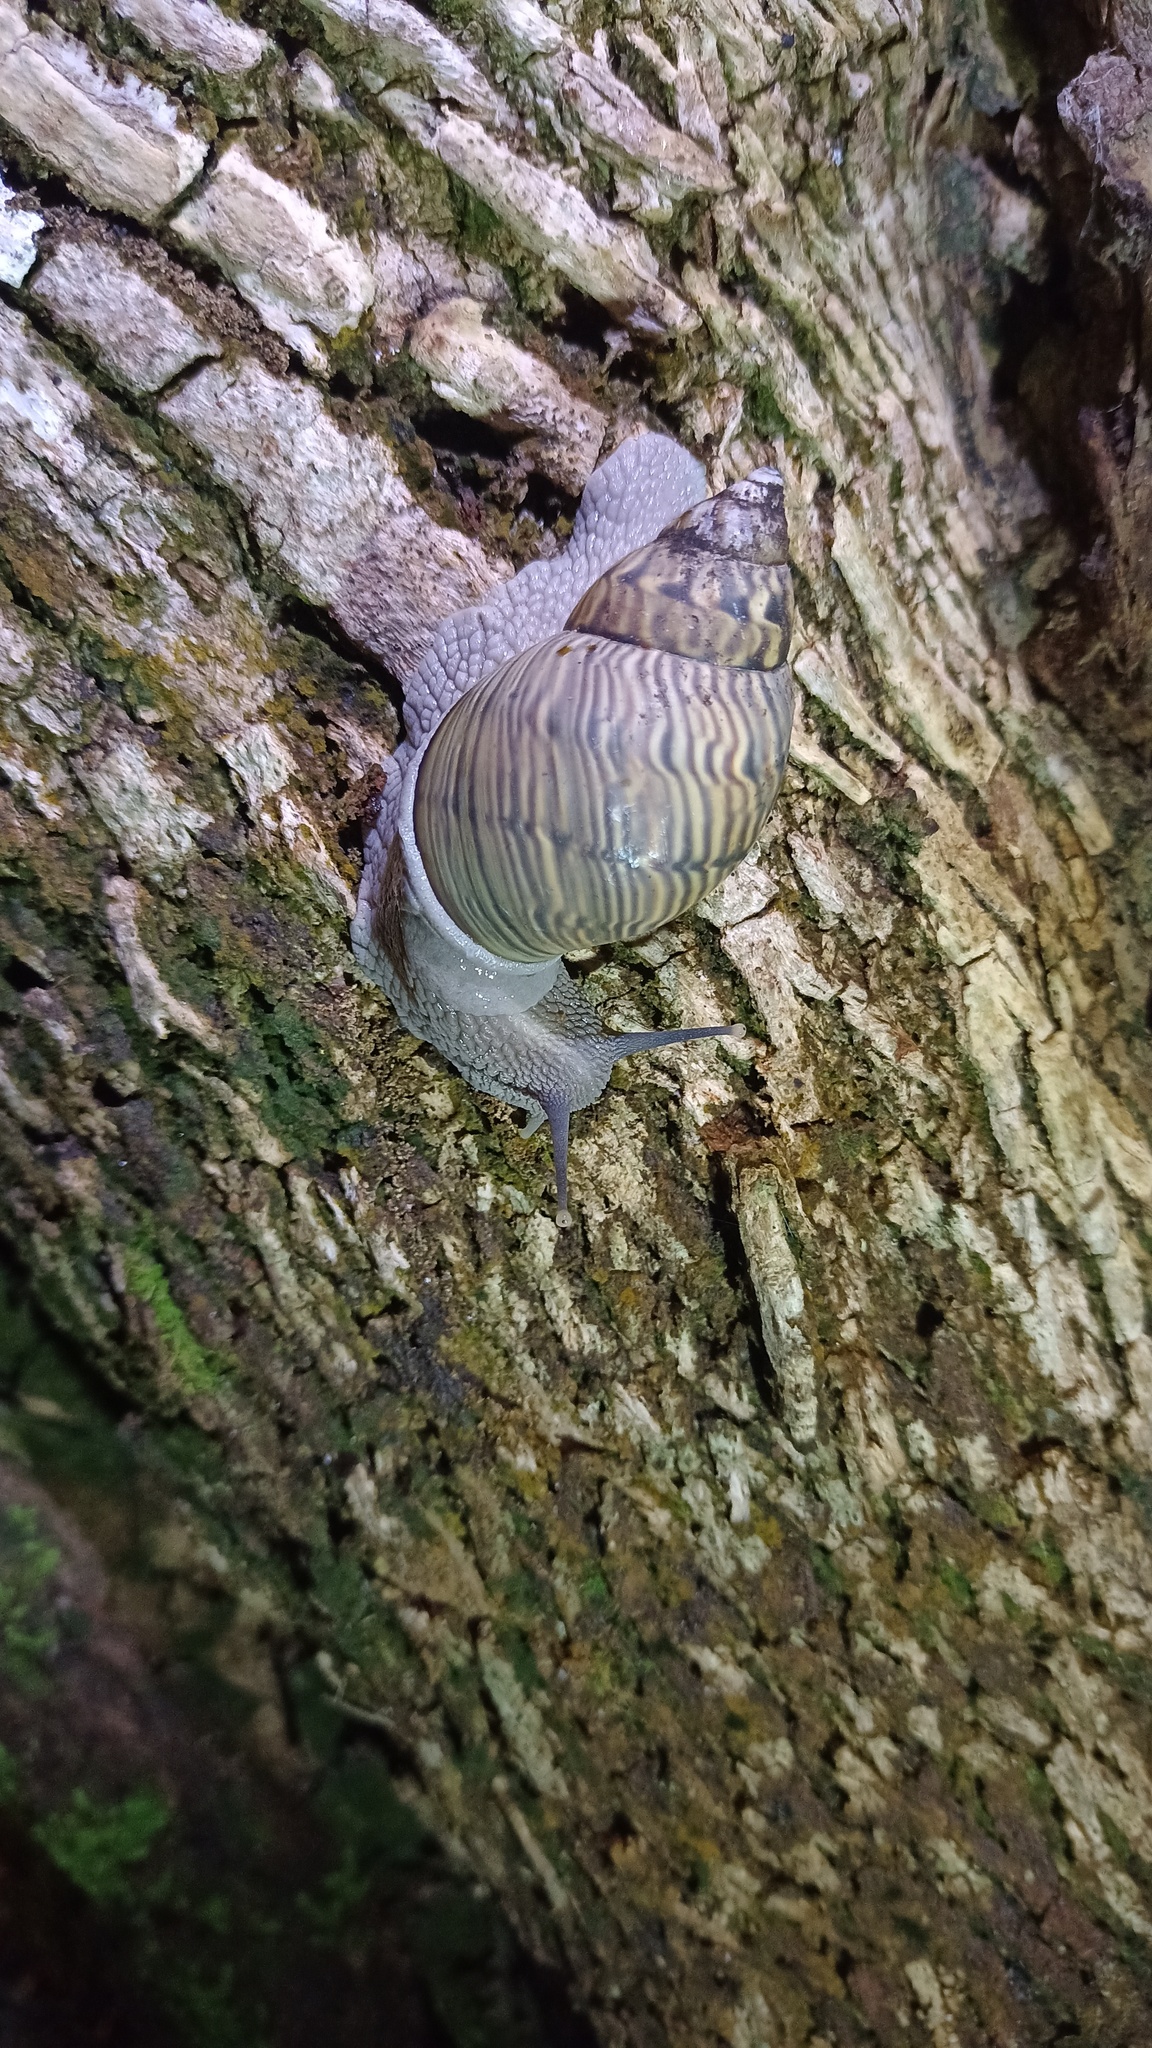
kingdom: Animalia
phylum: Mollusca
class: Gastropoda
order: Stylommatophora
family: Orthalicidae
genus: Orthalicus
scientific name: Orthalicus pulchellus
